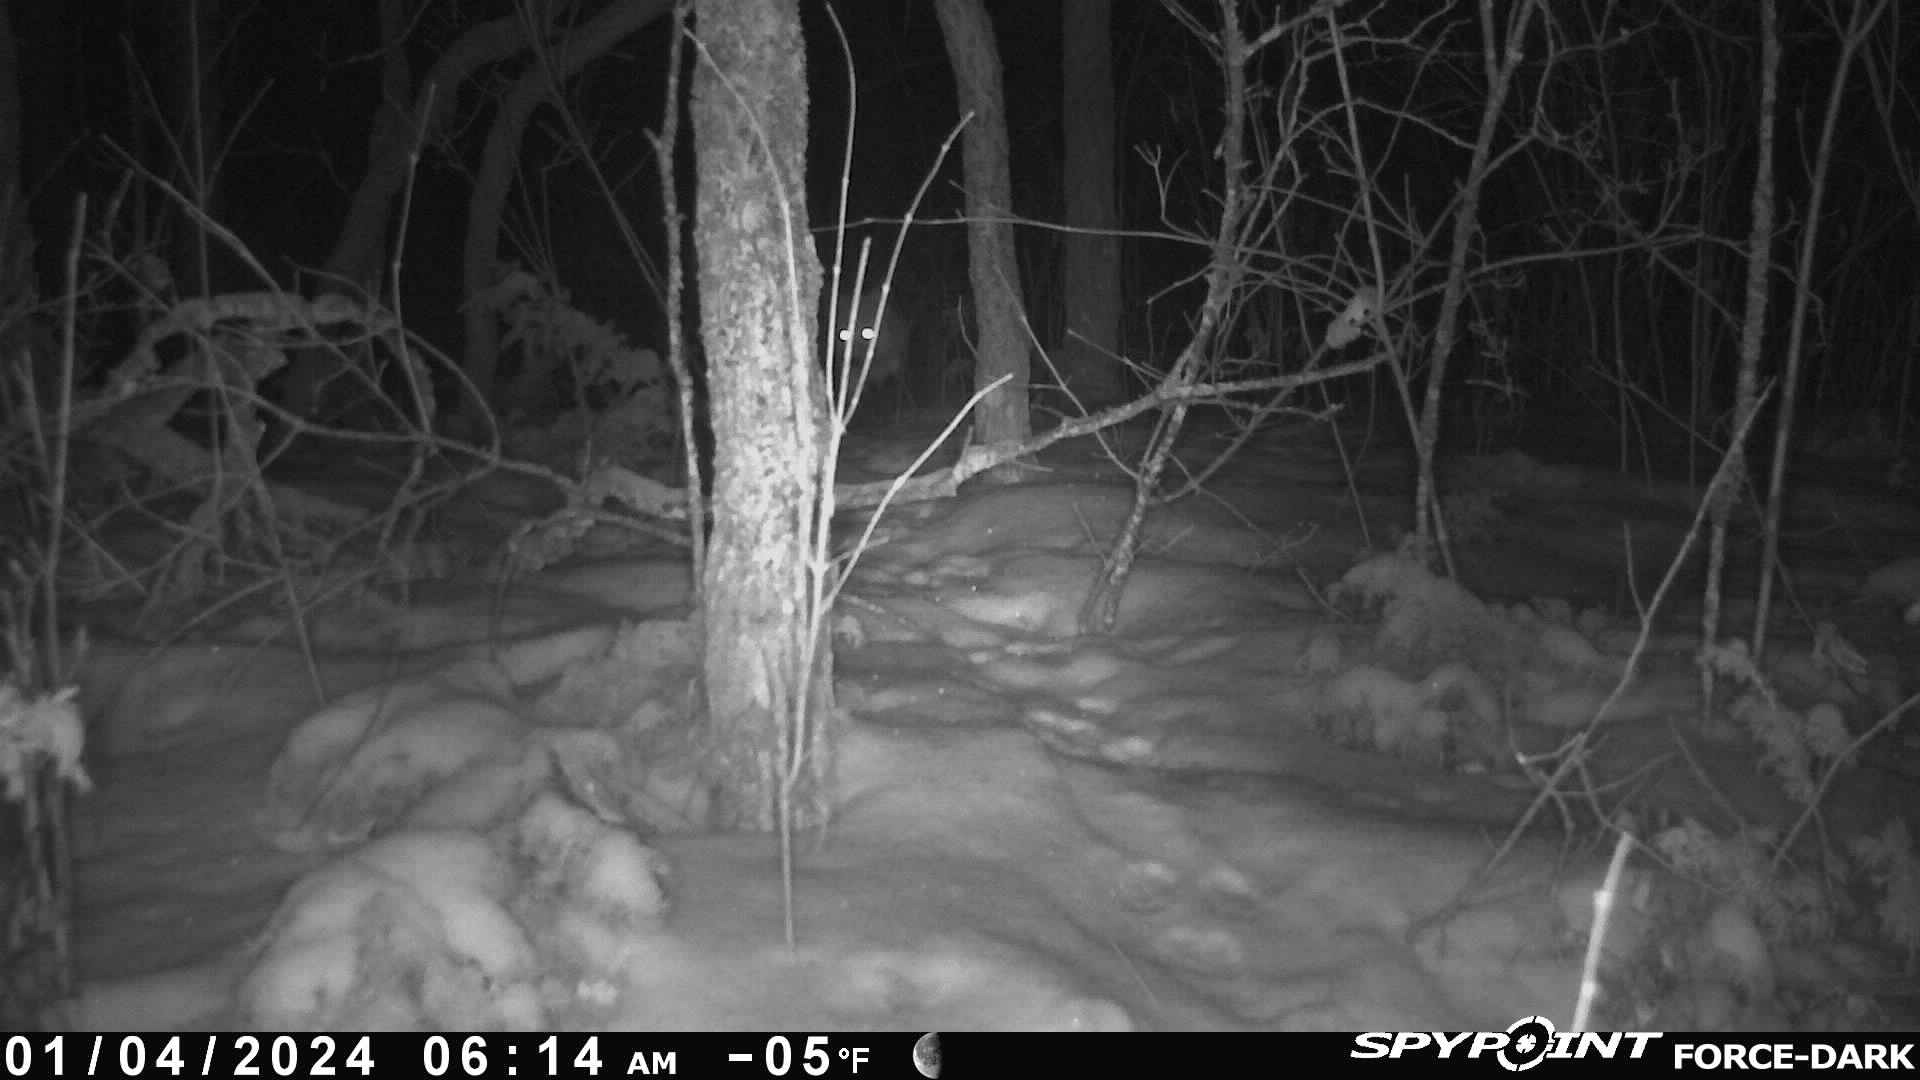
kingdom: Animalia
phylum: Chordata
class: Mammalia
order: Carnivora
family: Canidae
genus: Vulpes
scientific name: Vulpes vulpes
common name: Red fox
